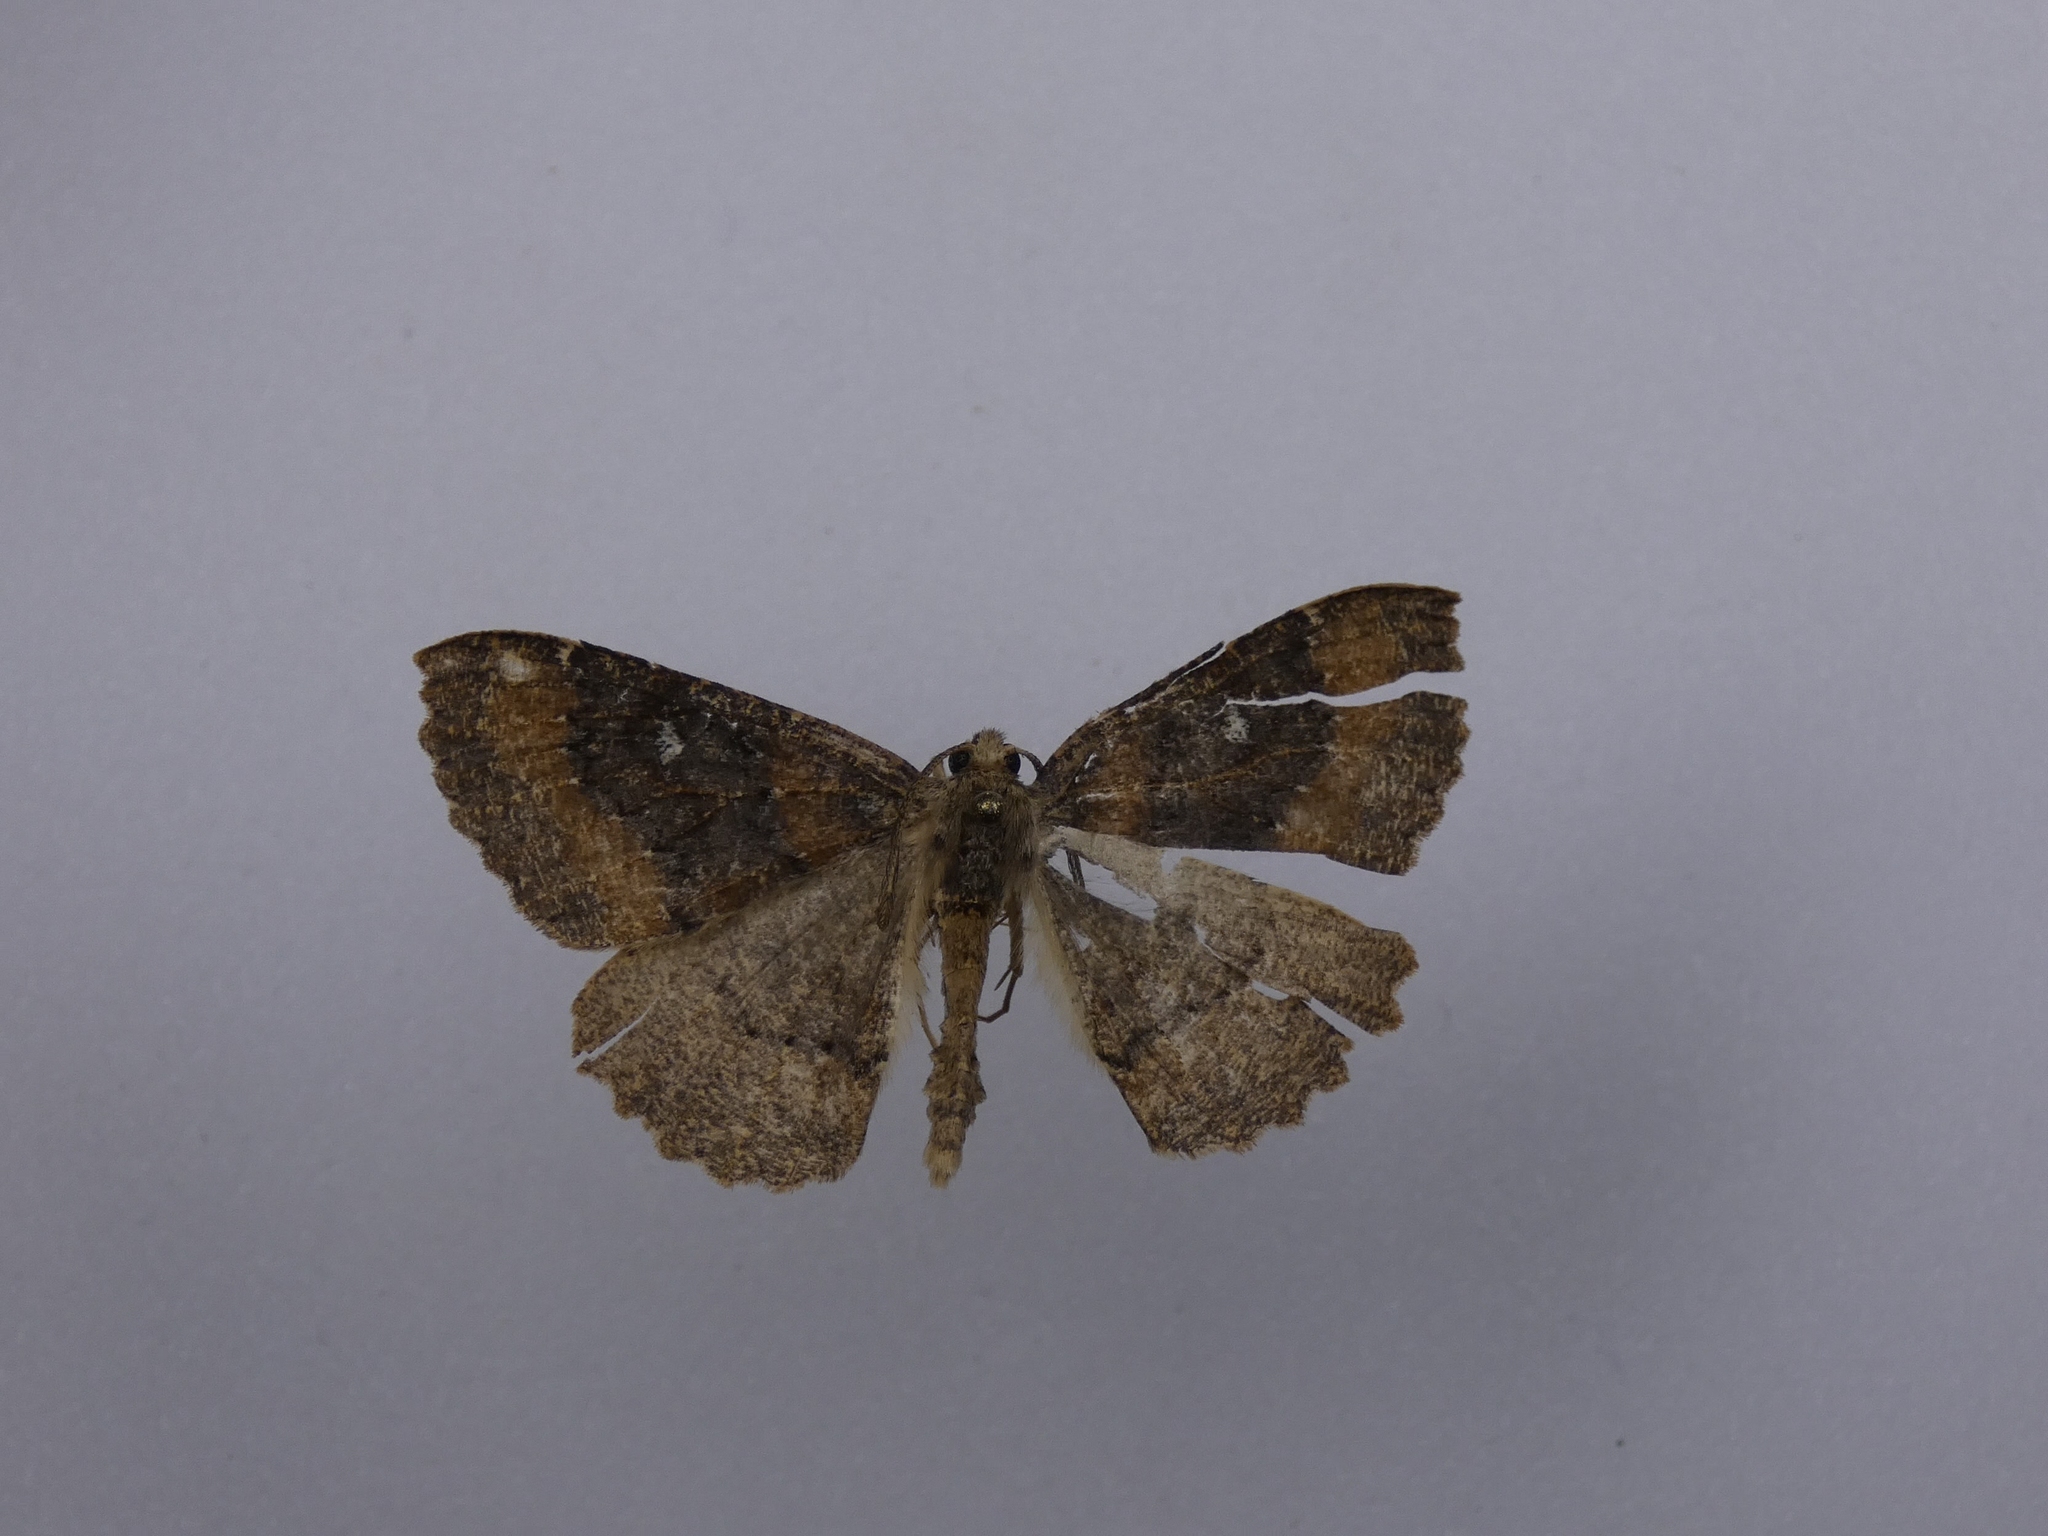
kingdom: Animalia
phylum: Arthropoda
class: Insecta
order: Lepidoptera
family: Geometridae
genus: Cleora
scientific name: Cleora scriptaria
